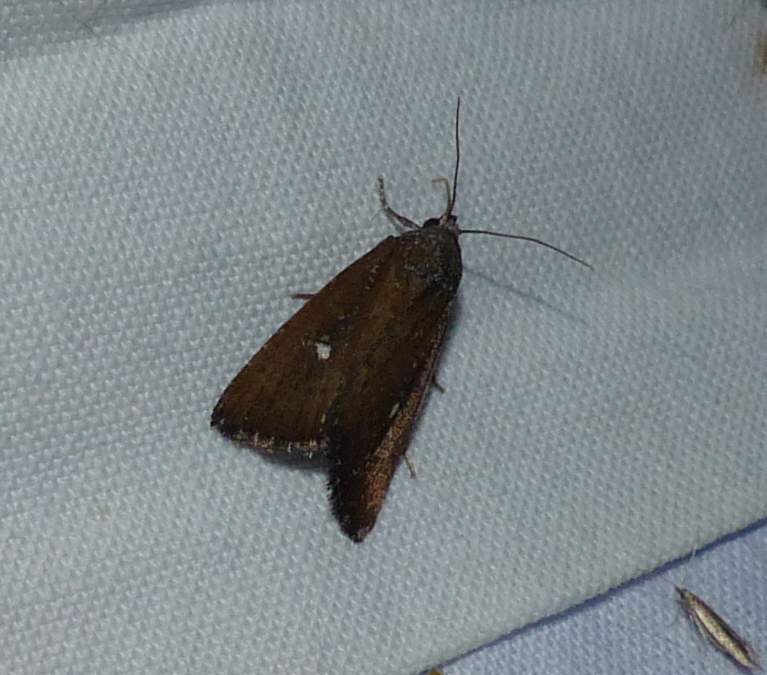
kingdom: Animalia
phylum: Arthropoda
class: Insecta
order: Lepidoptera
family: Noctuidae
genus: Condica
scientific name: Condica videns
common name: White-dotted groundling
